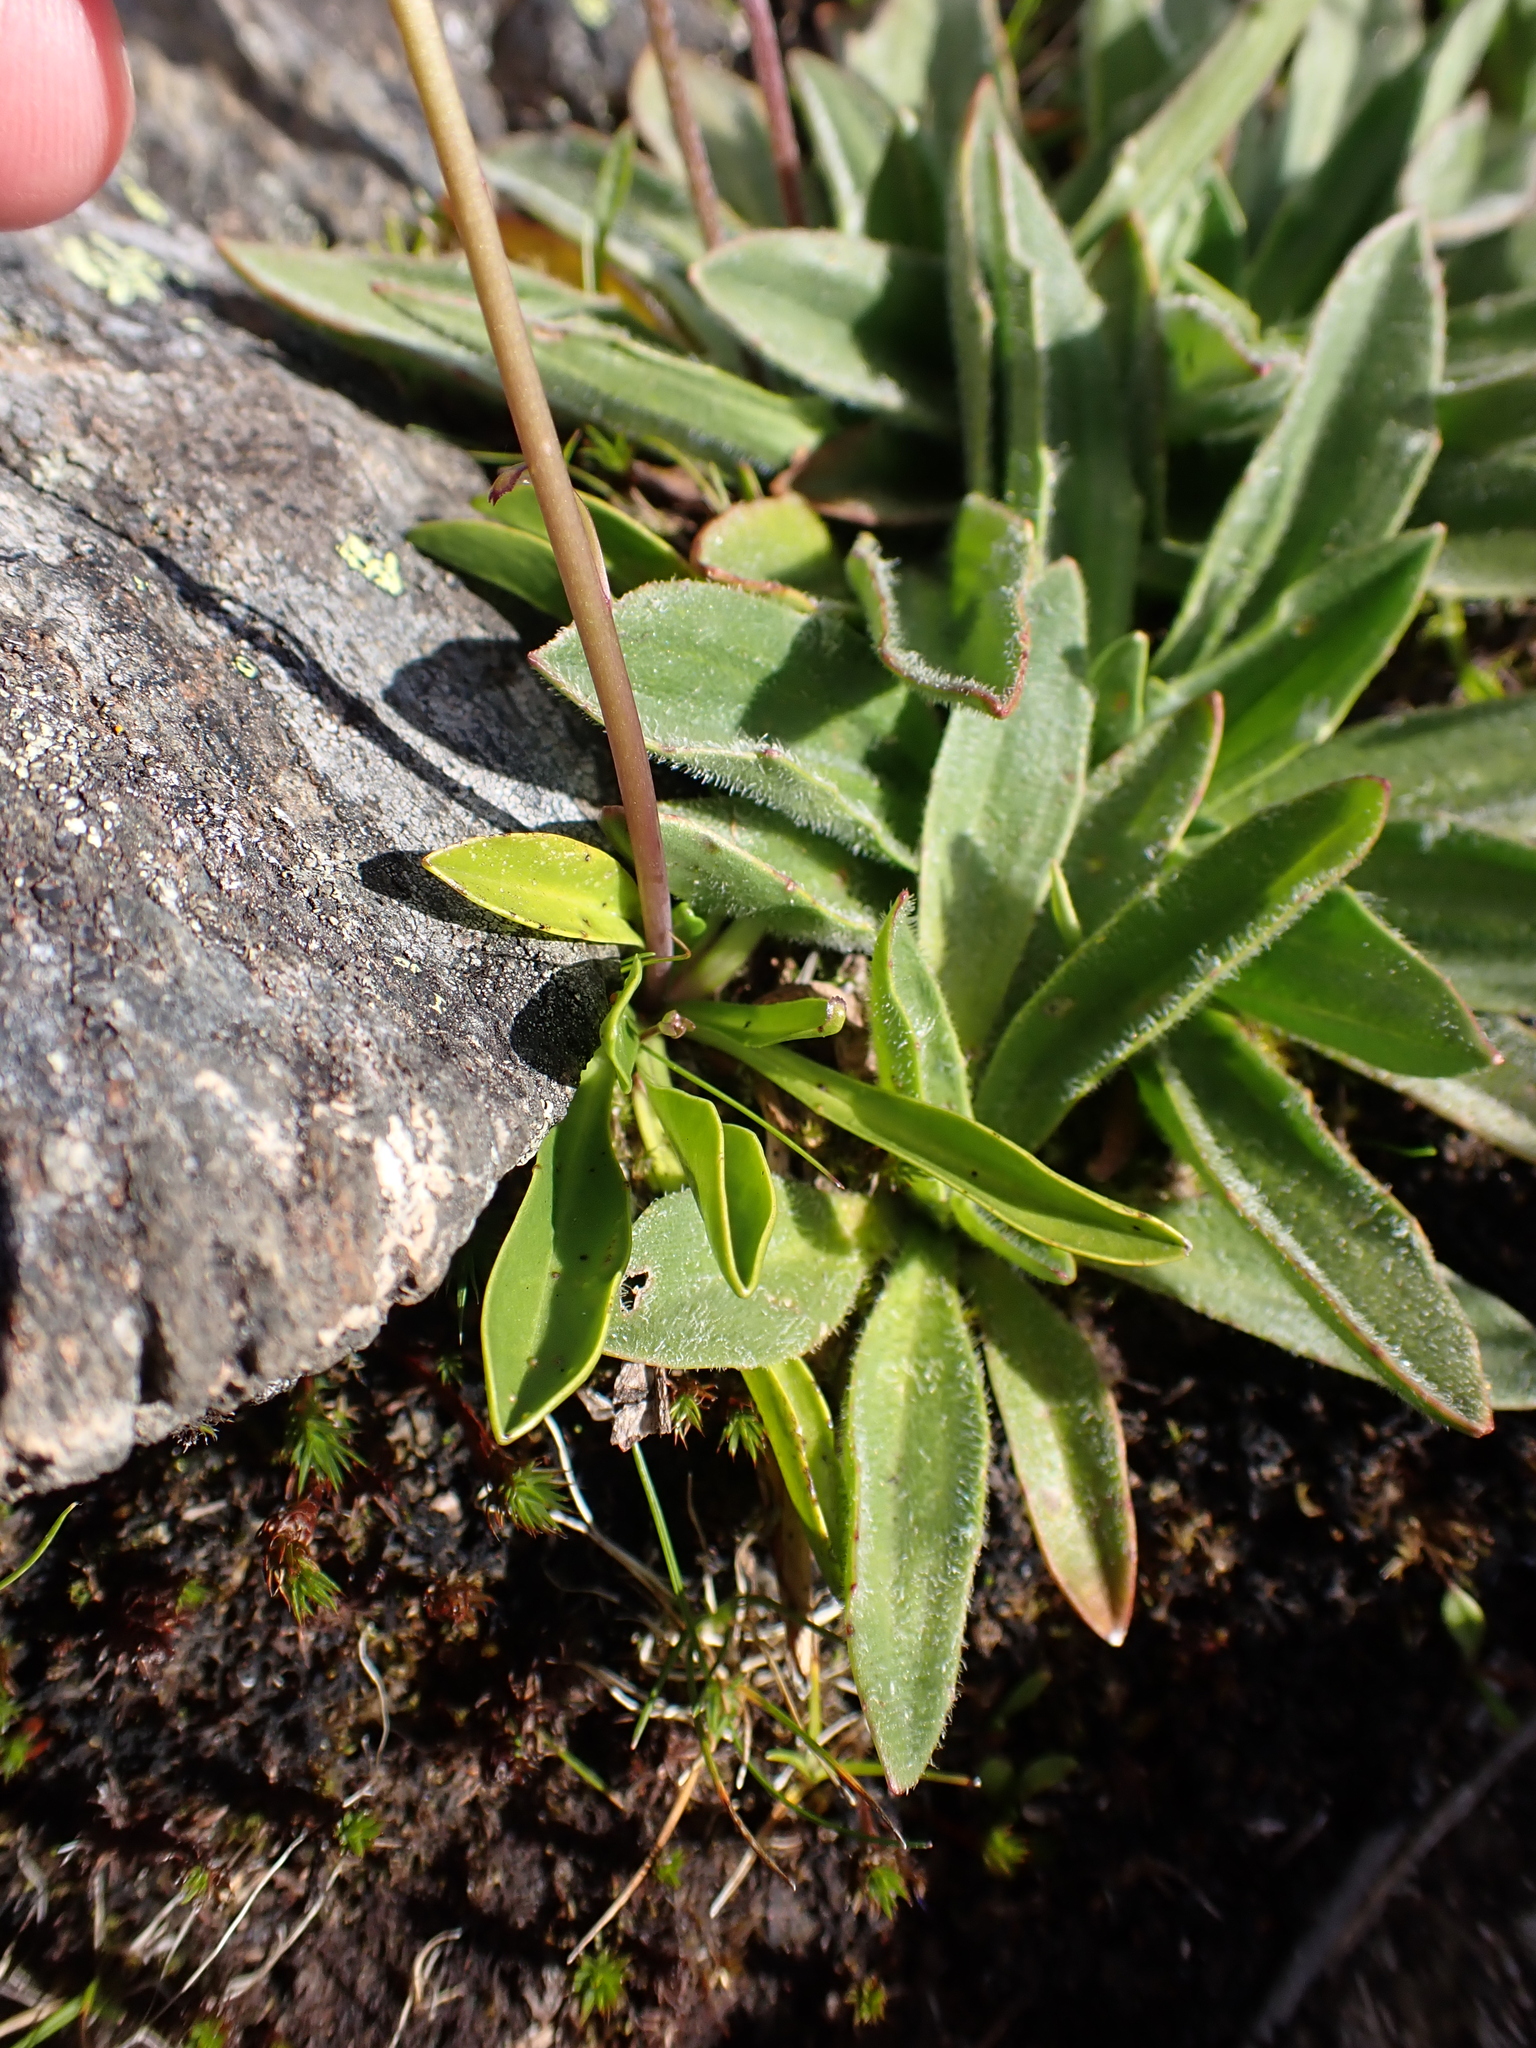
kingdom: Plantae
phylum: Tracheophyta
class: Magnoliopsida
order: Asterales
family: Asteraceae
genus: Brachyscome
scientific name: Brachyscome scapigera
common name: Tufted daisy
